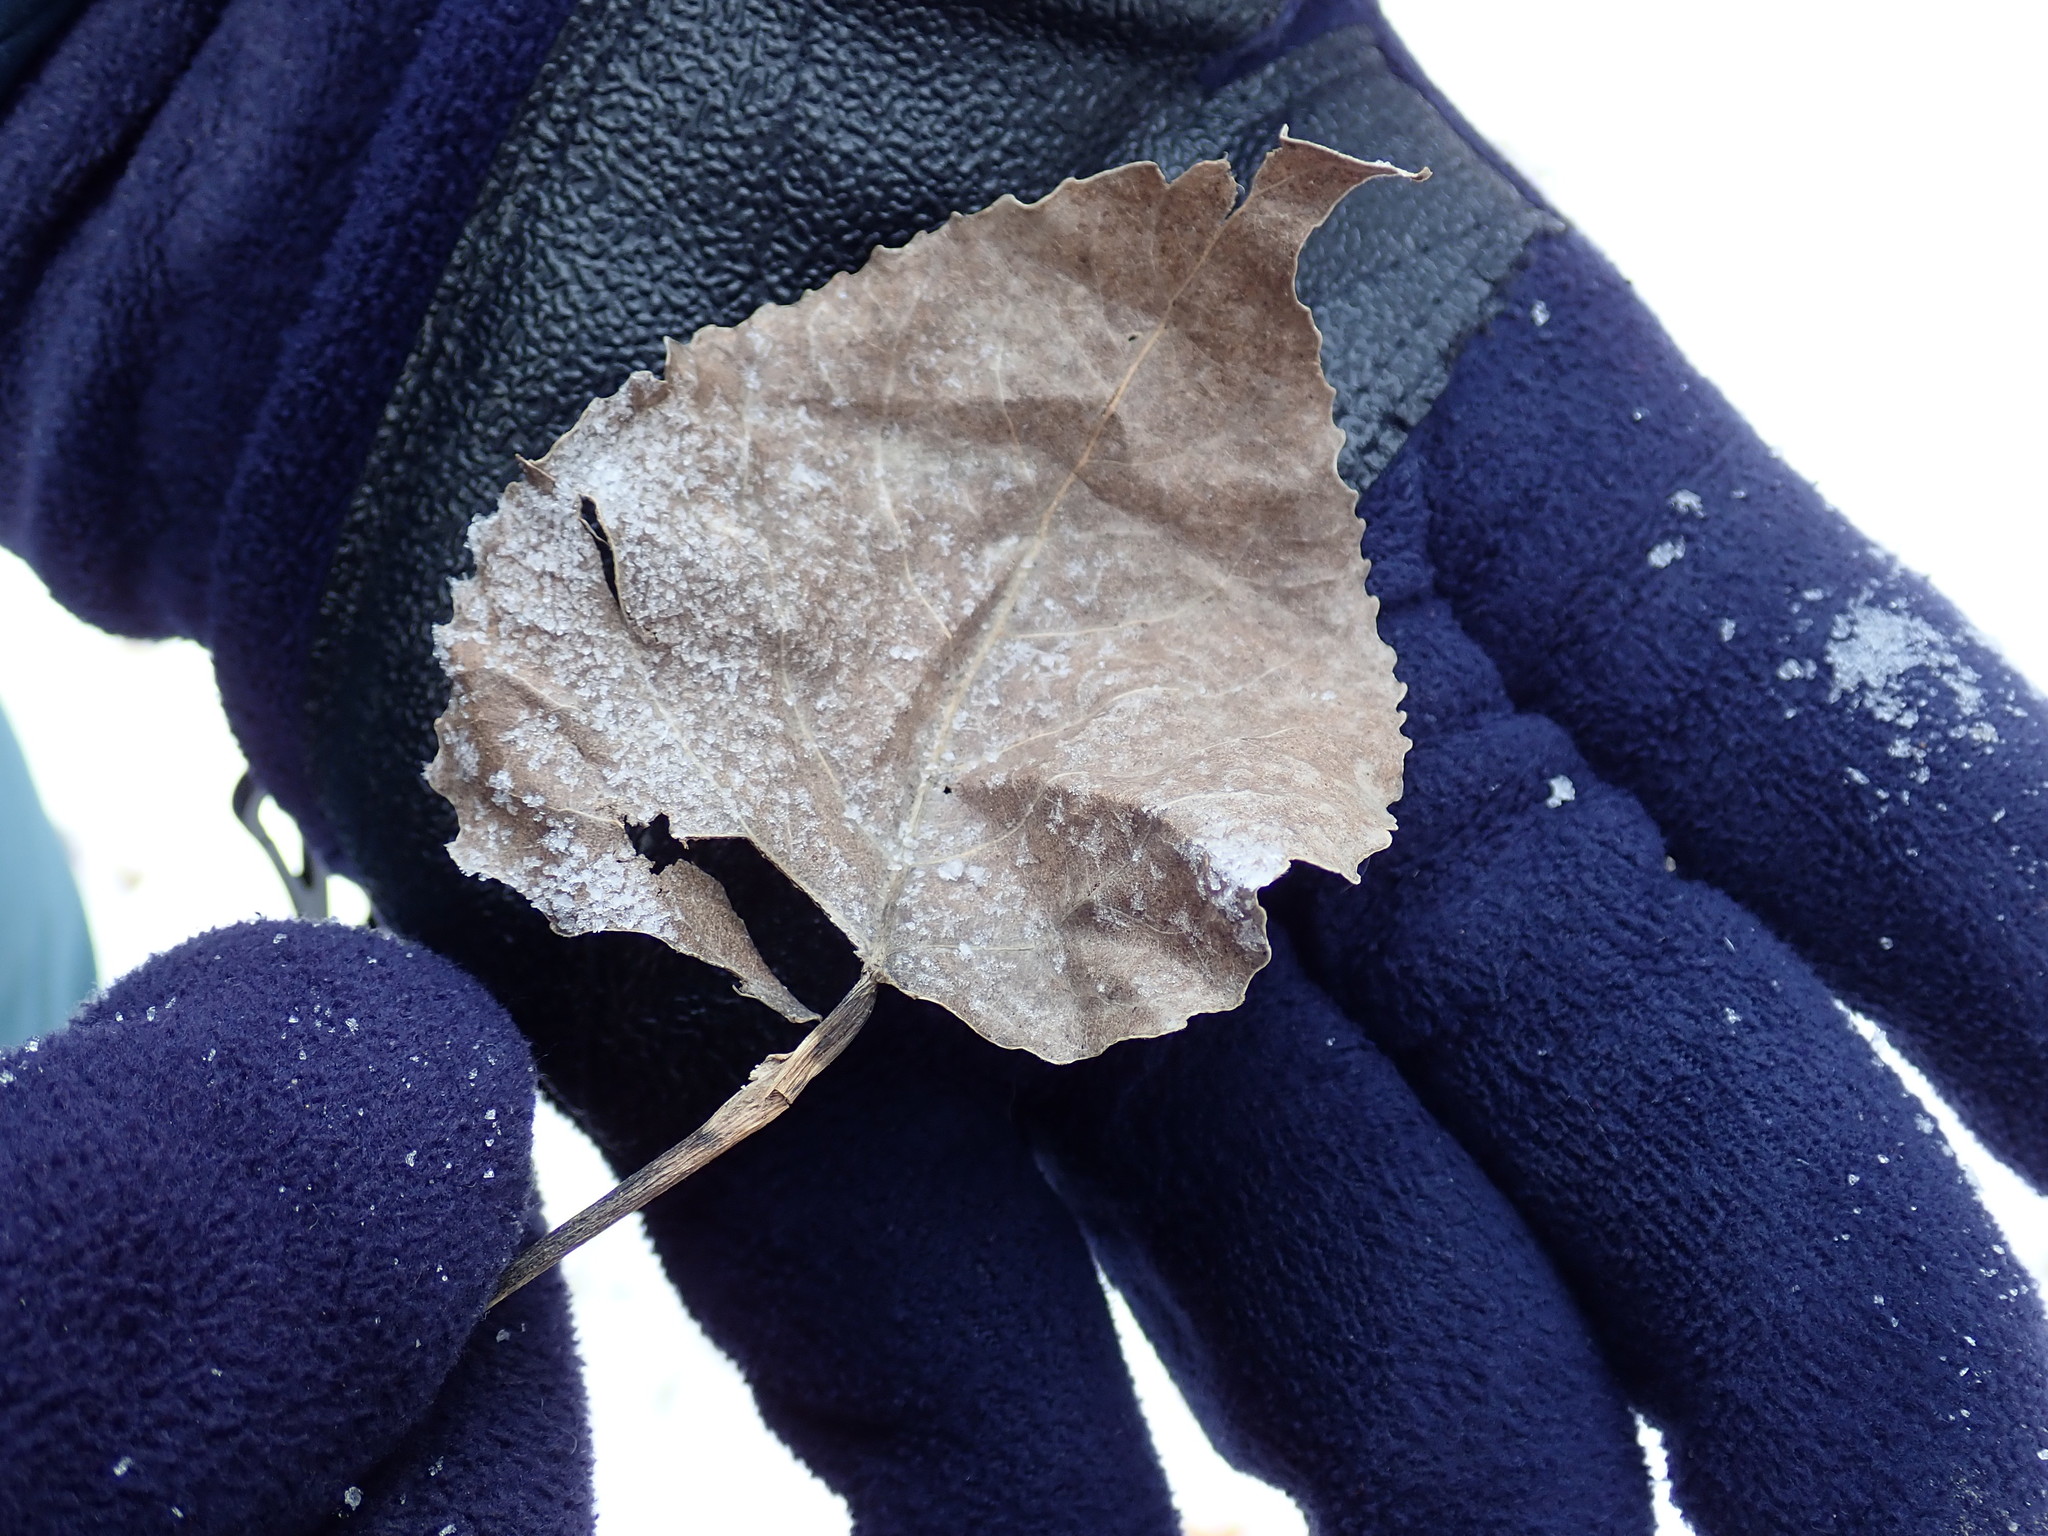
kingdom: Plantae
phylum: Tracheophyta
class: Magnoliopsida
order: Malpighiales
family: Salicaceae
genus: Populus
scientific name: Populus deltoides
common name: Eastern cottonwood
